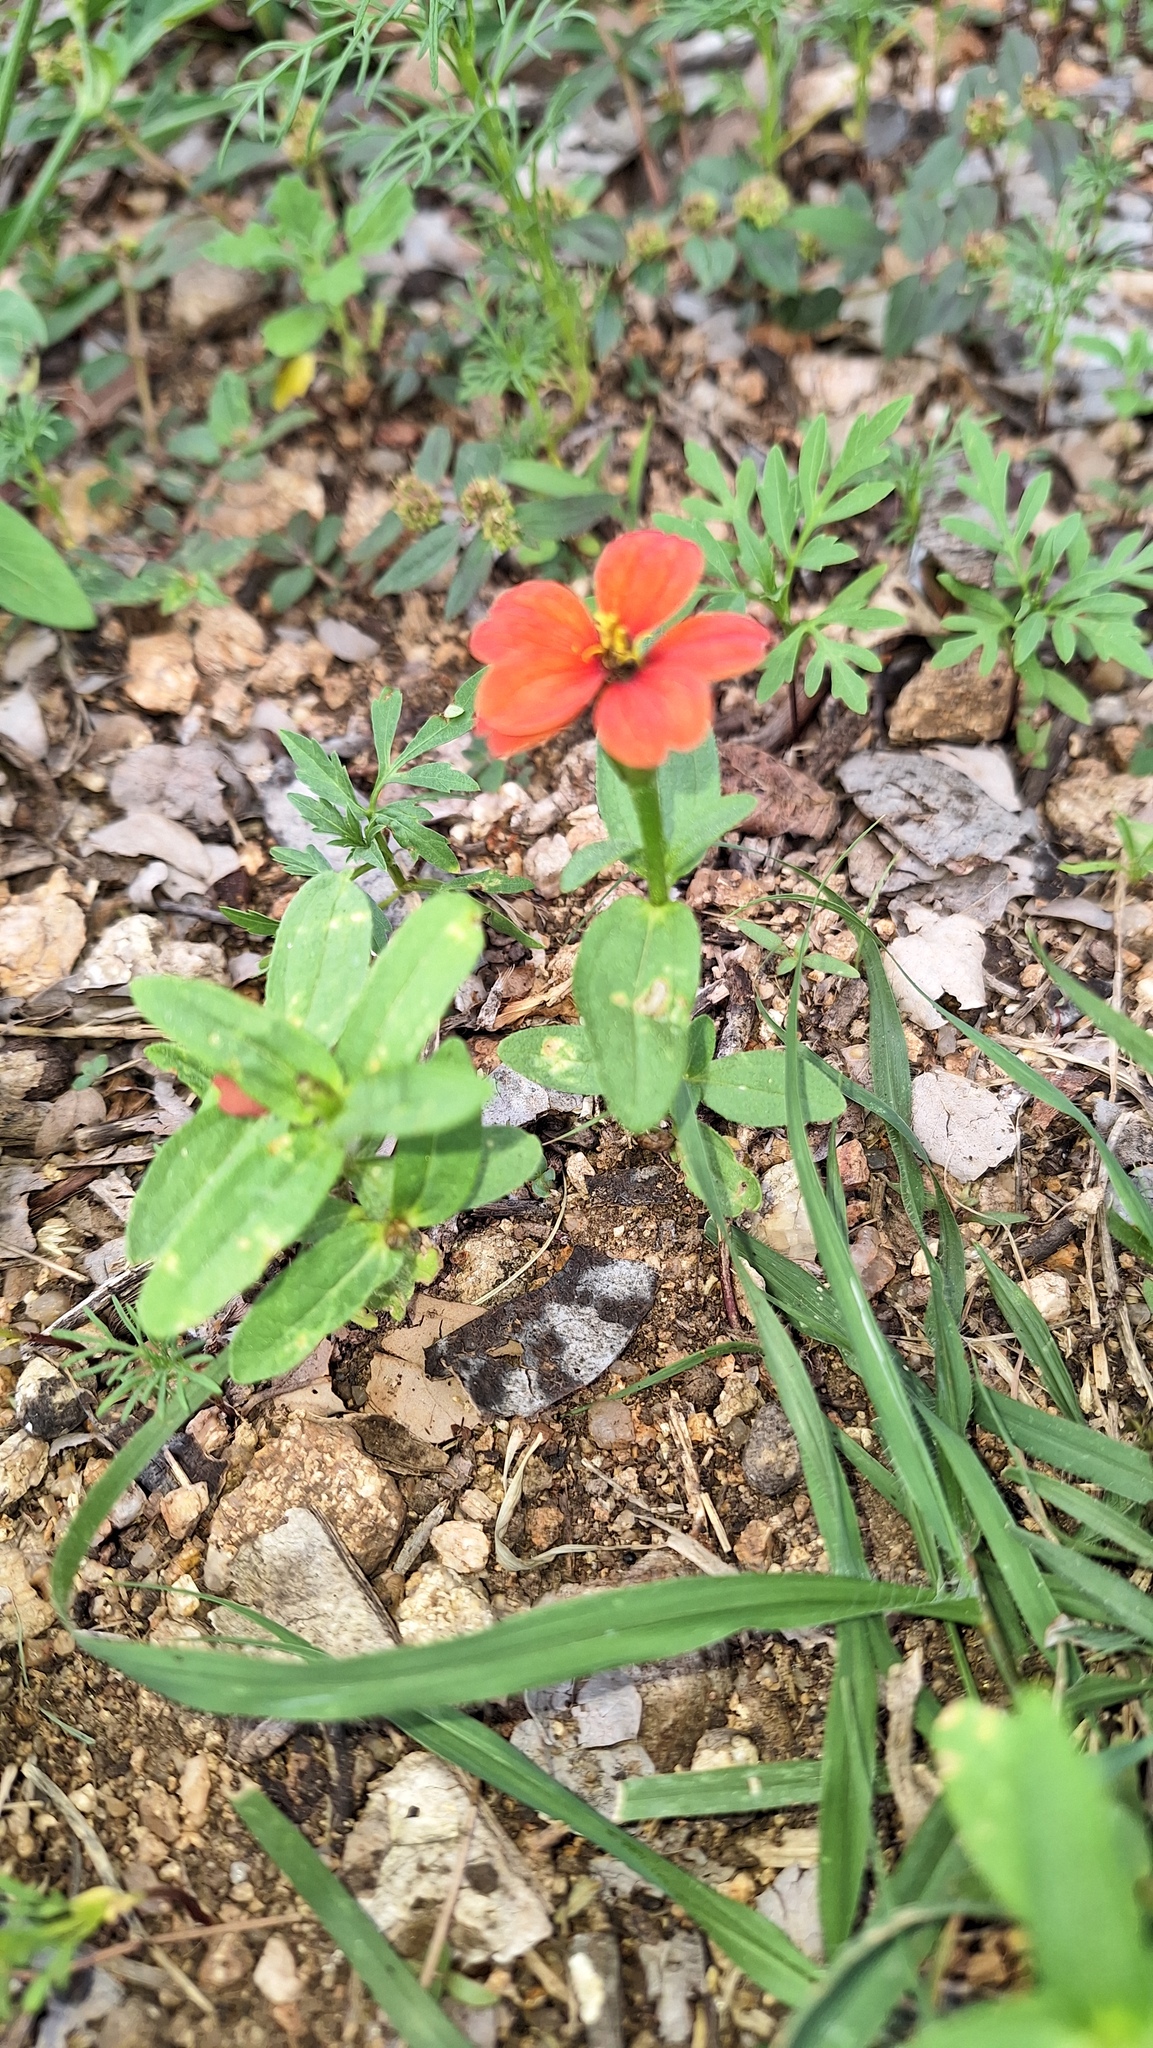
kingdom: Plantae
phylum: Tracheophyta
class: Magnoliopsida
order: Asterales
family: Asteraceae
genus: Zinnia
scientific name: Zinnia peruviana
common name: Peruvian zinnia
